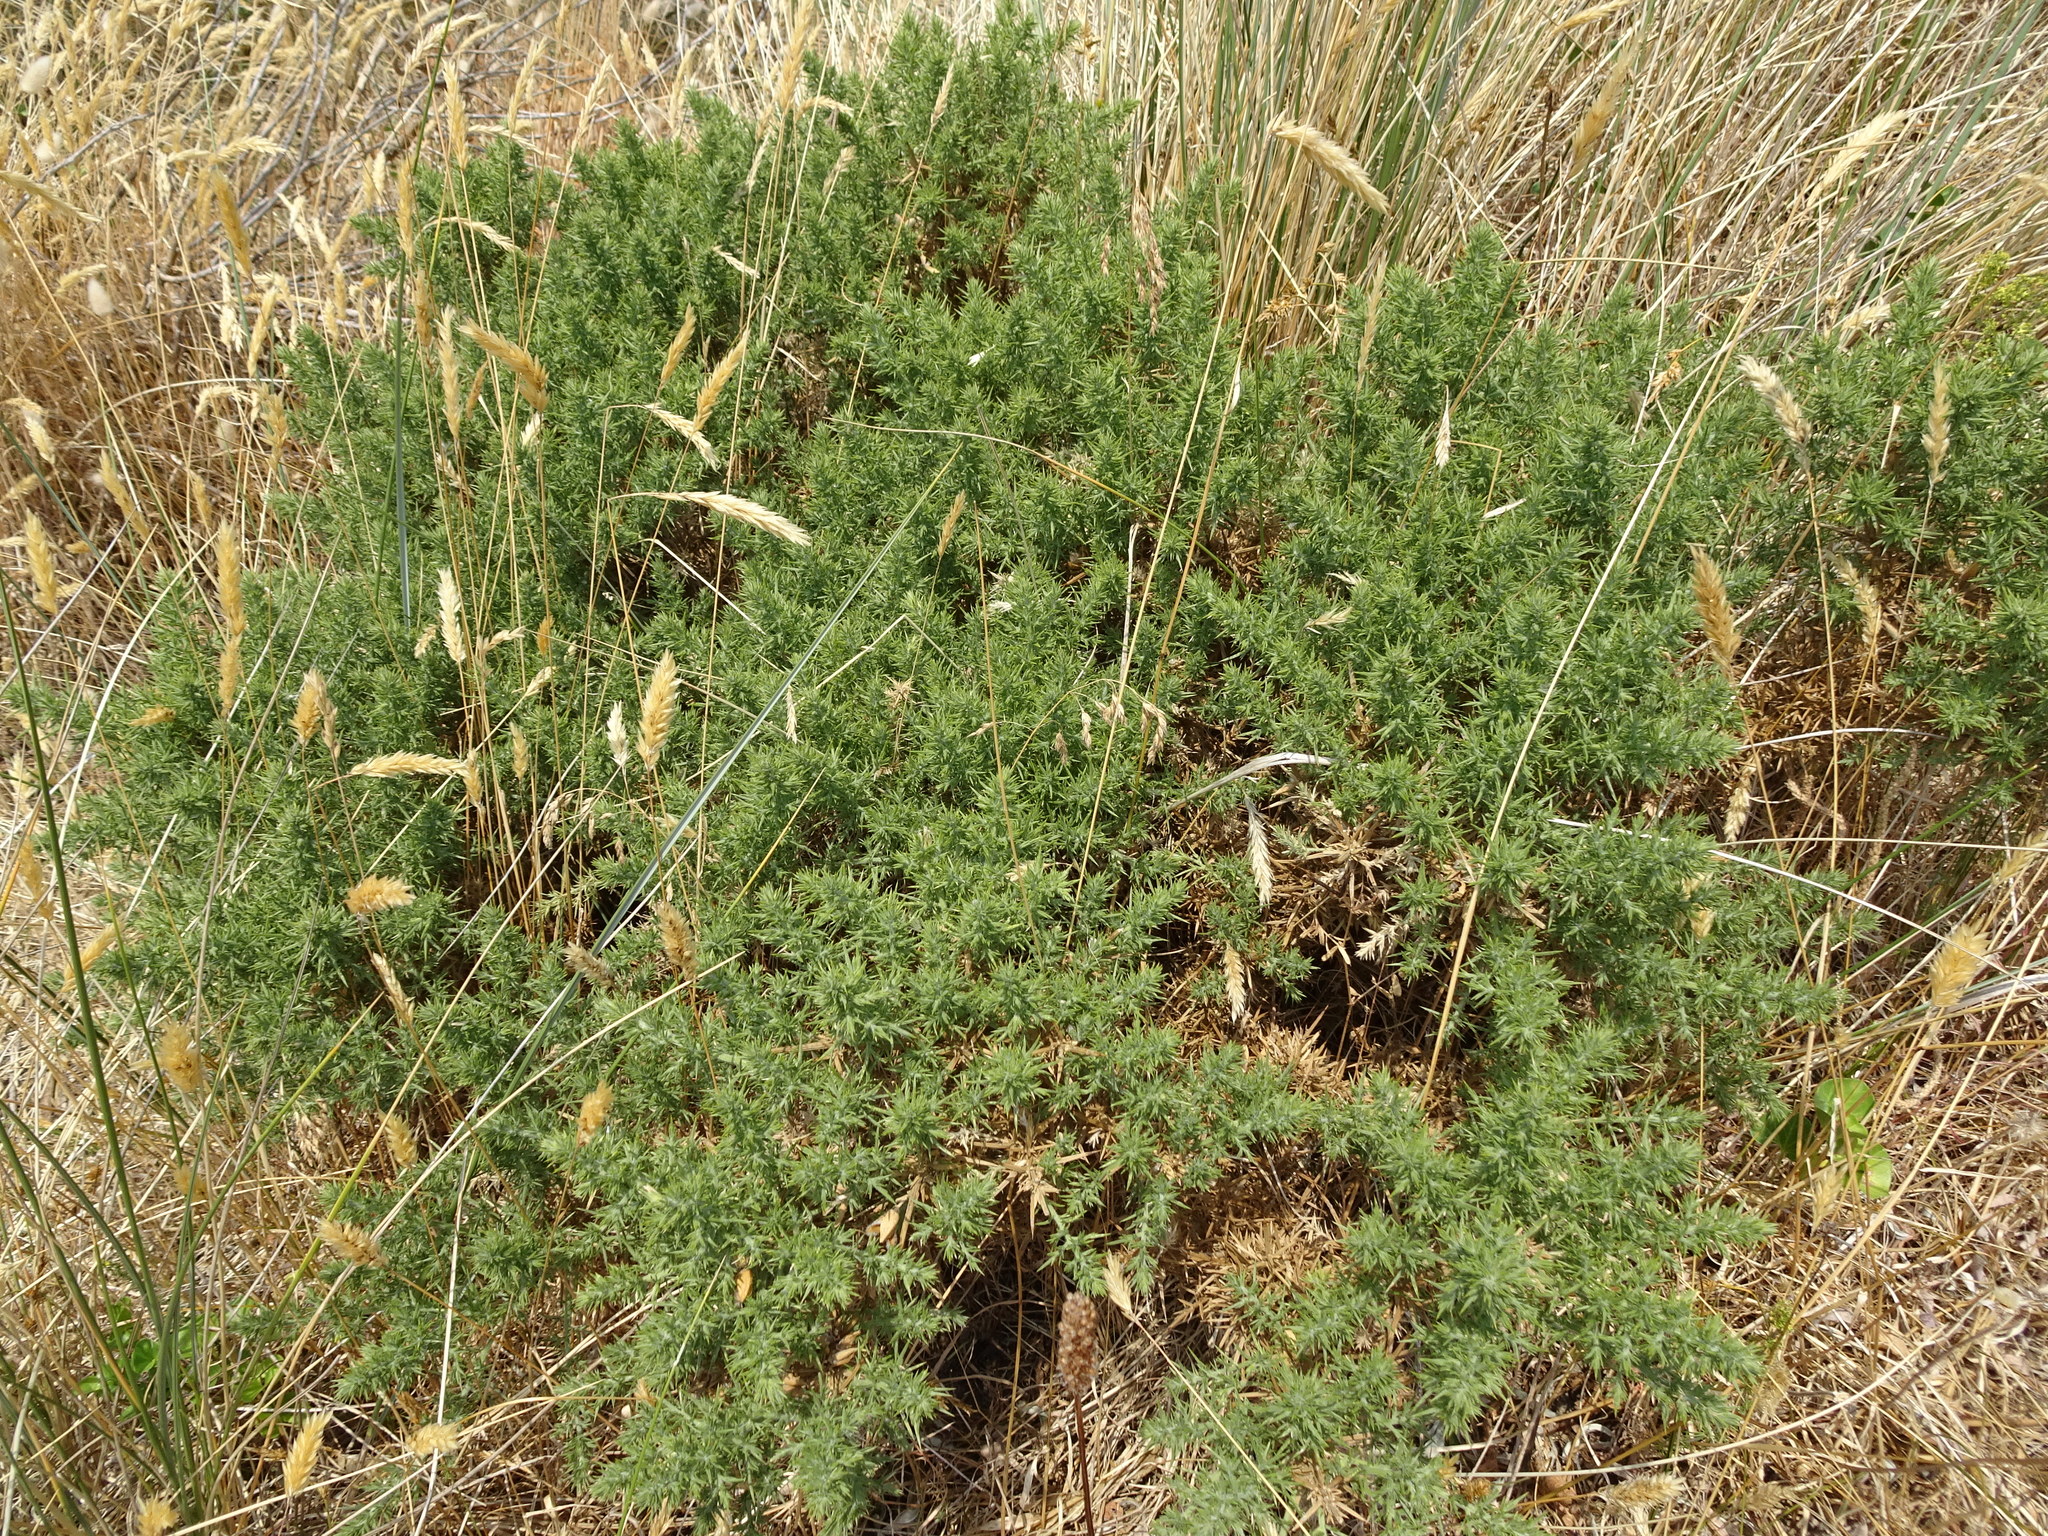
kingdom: Plantae
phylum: Tracheophyta
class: Magnoliopsida
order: Fabales
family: Fabaceae
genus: Ulex
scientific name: Ulex europaeus
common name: Common gorse
